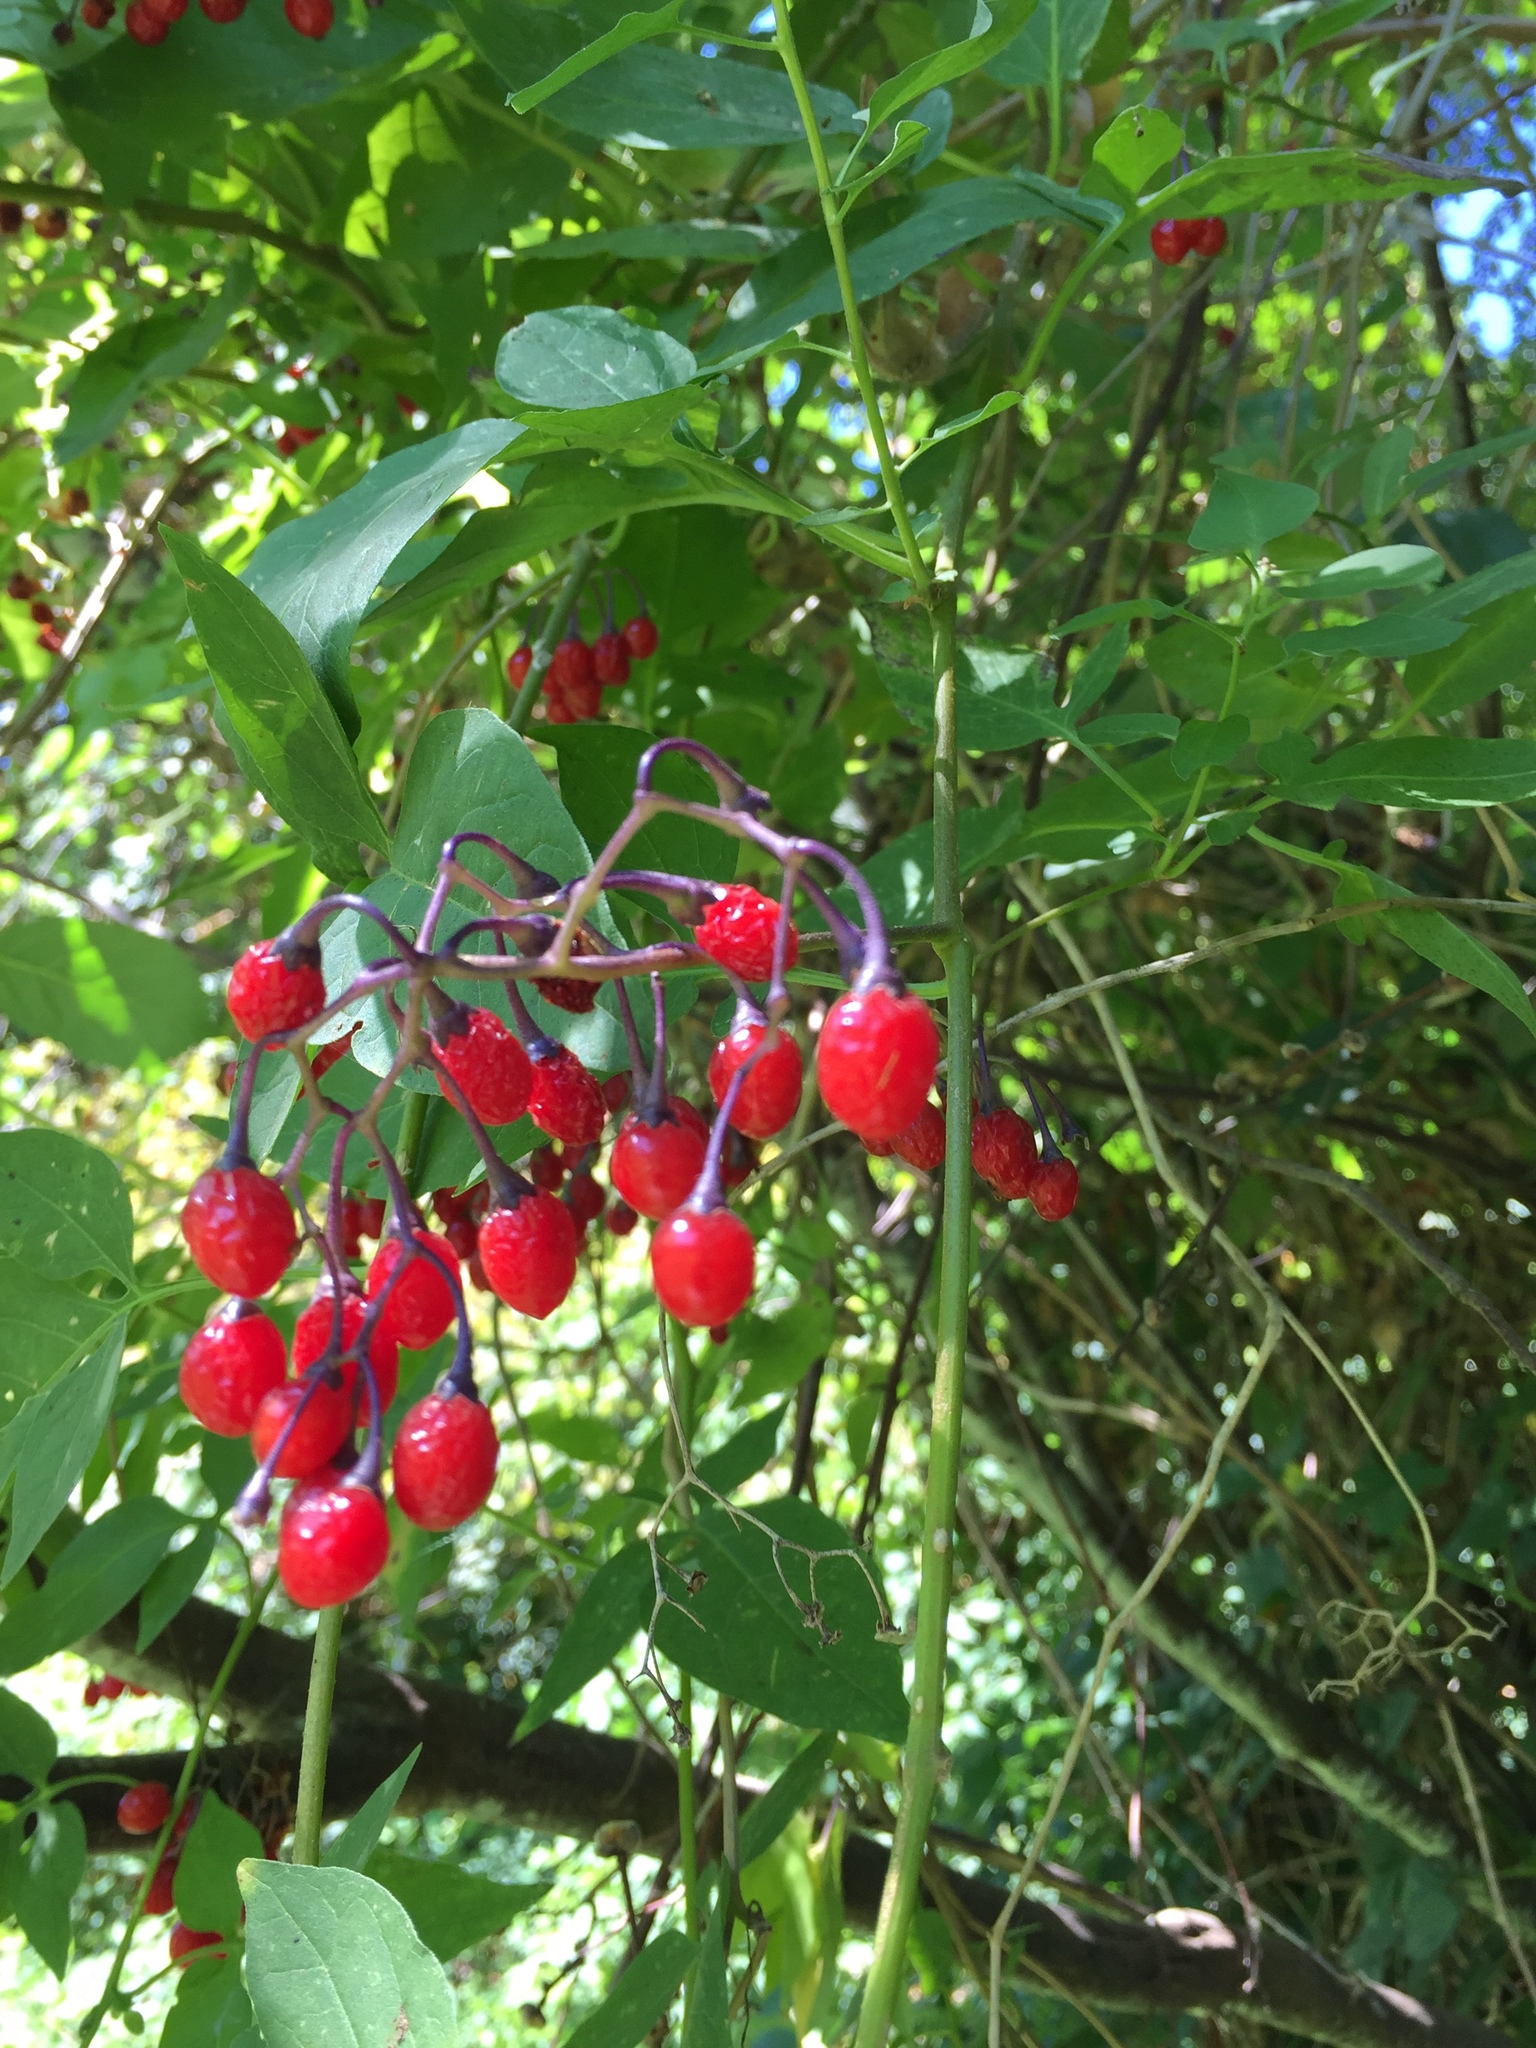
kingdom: Plantae
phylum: Tracheophyta
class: Magnoliopsida
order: Solanales
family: Solanaceae
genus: Solanum
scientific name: Solanum dulcamara
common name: Climbing nightshade
